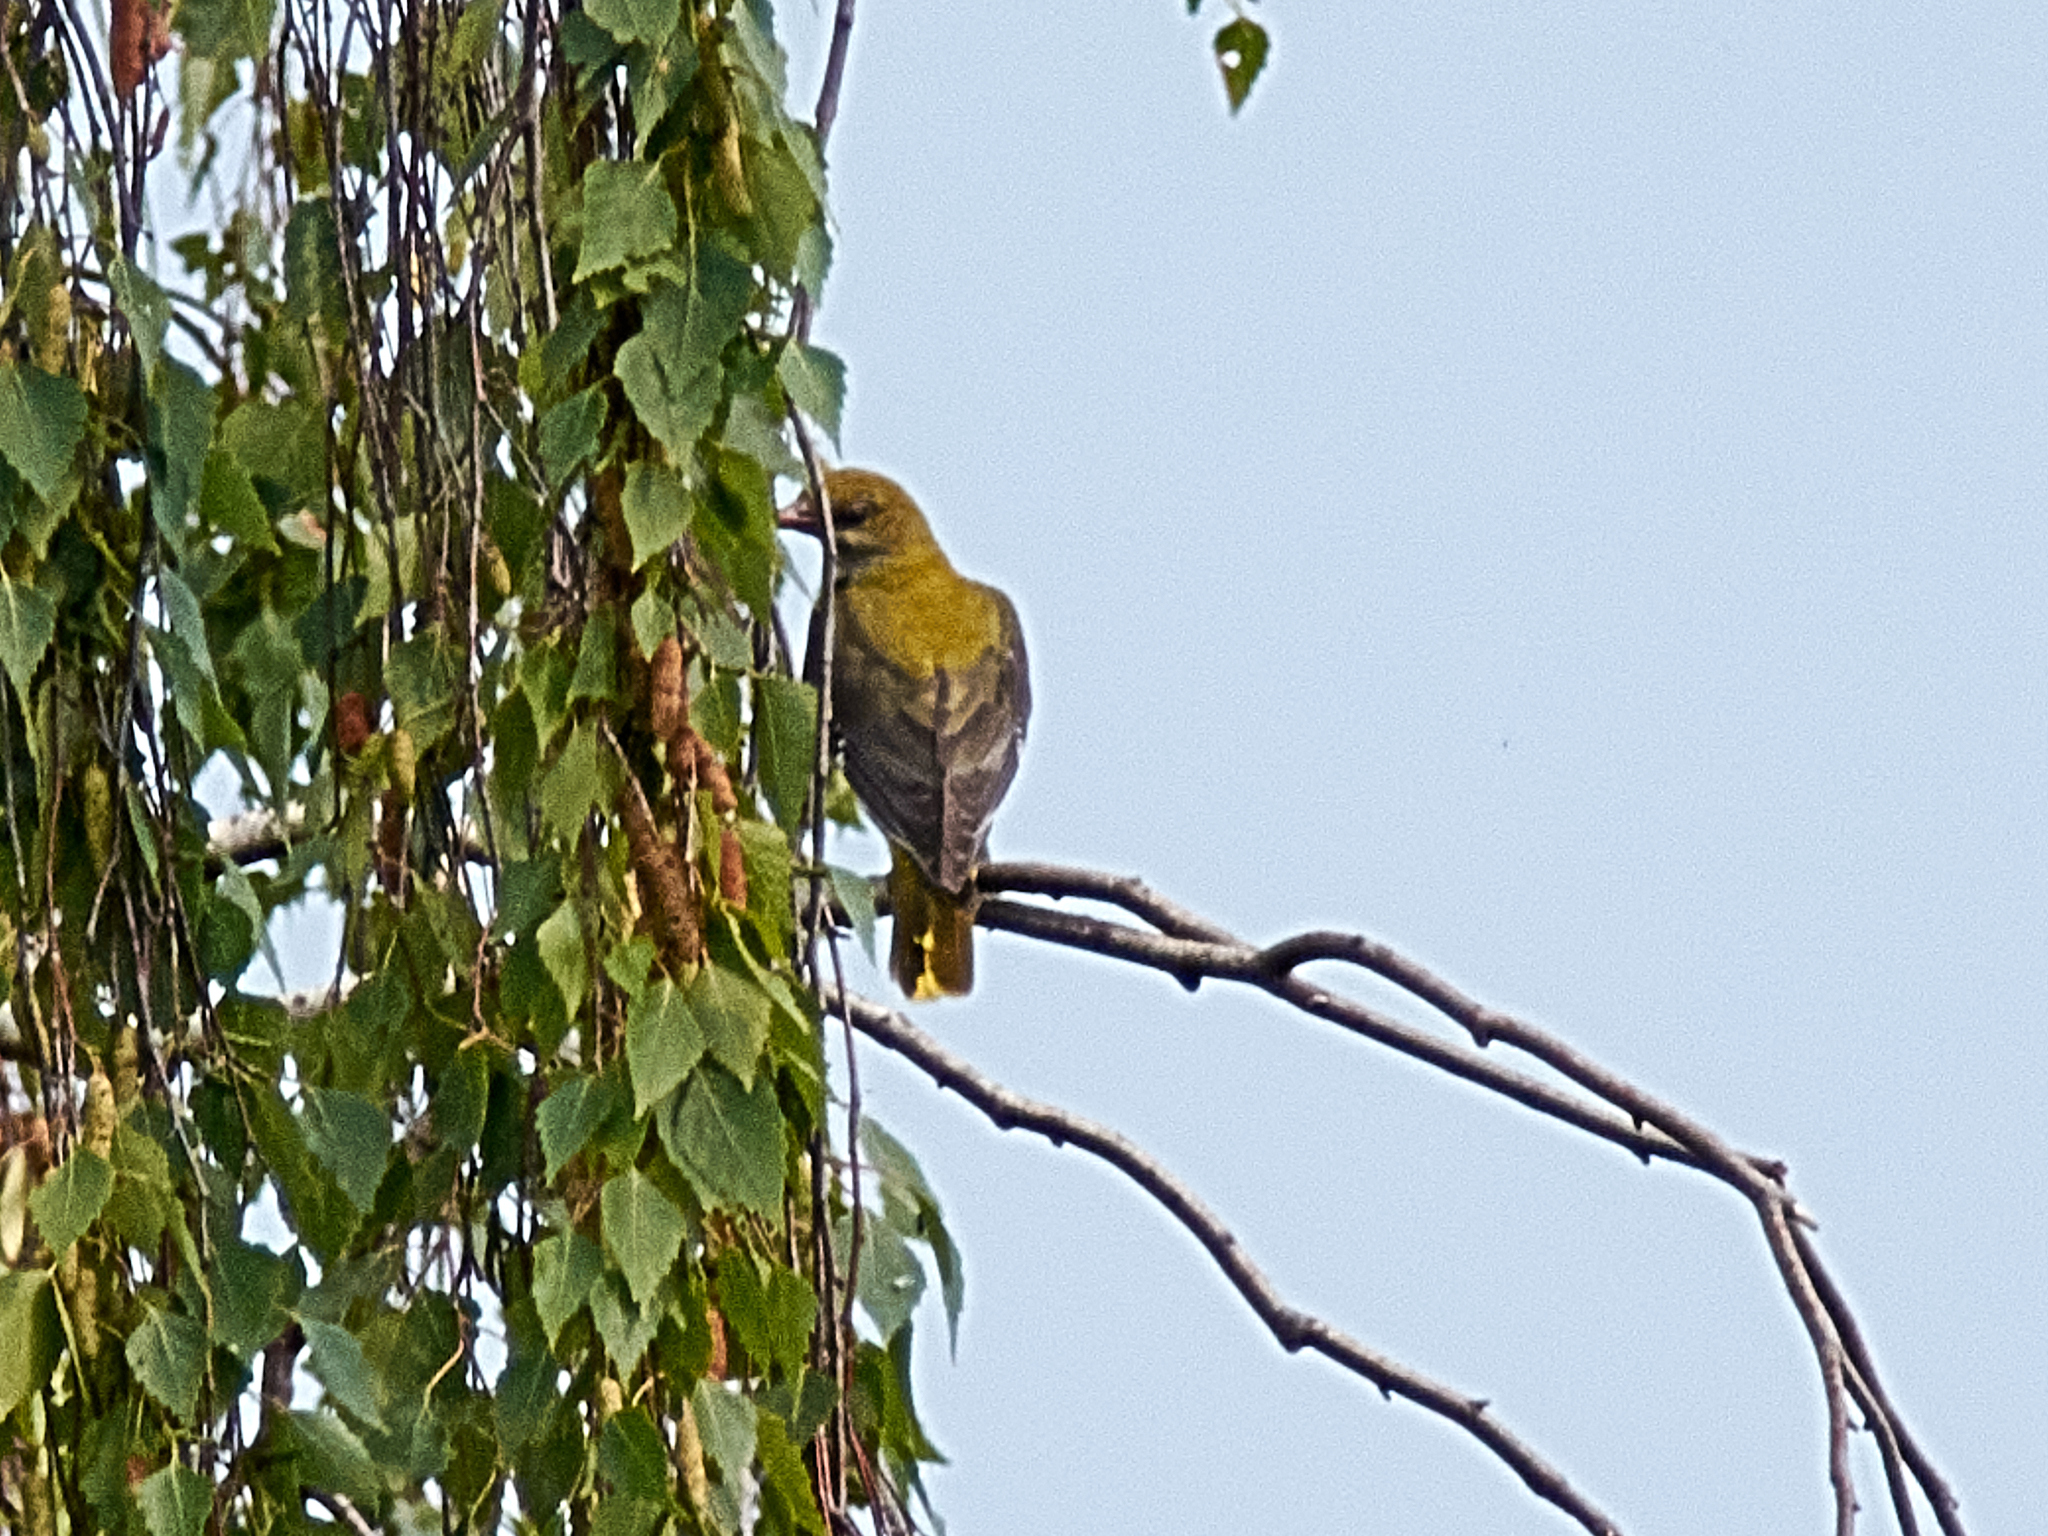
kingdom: Animalia
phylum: Chordata
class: Aves
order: Passeriformes
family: Oriolidae
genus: Oriolus
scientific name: Oriolus oriolus
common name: Eurasian golden oriole
